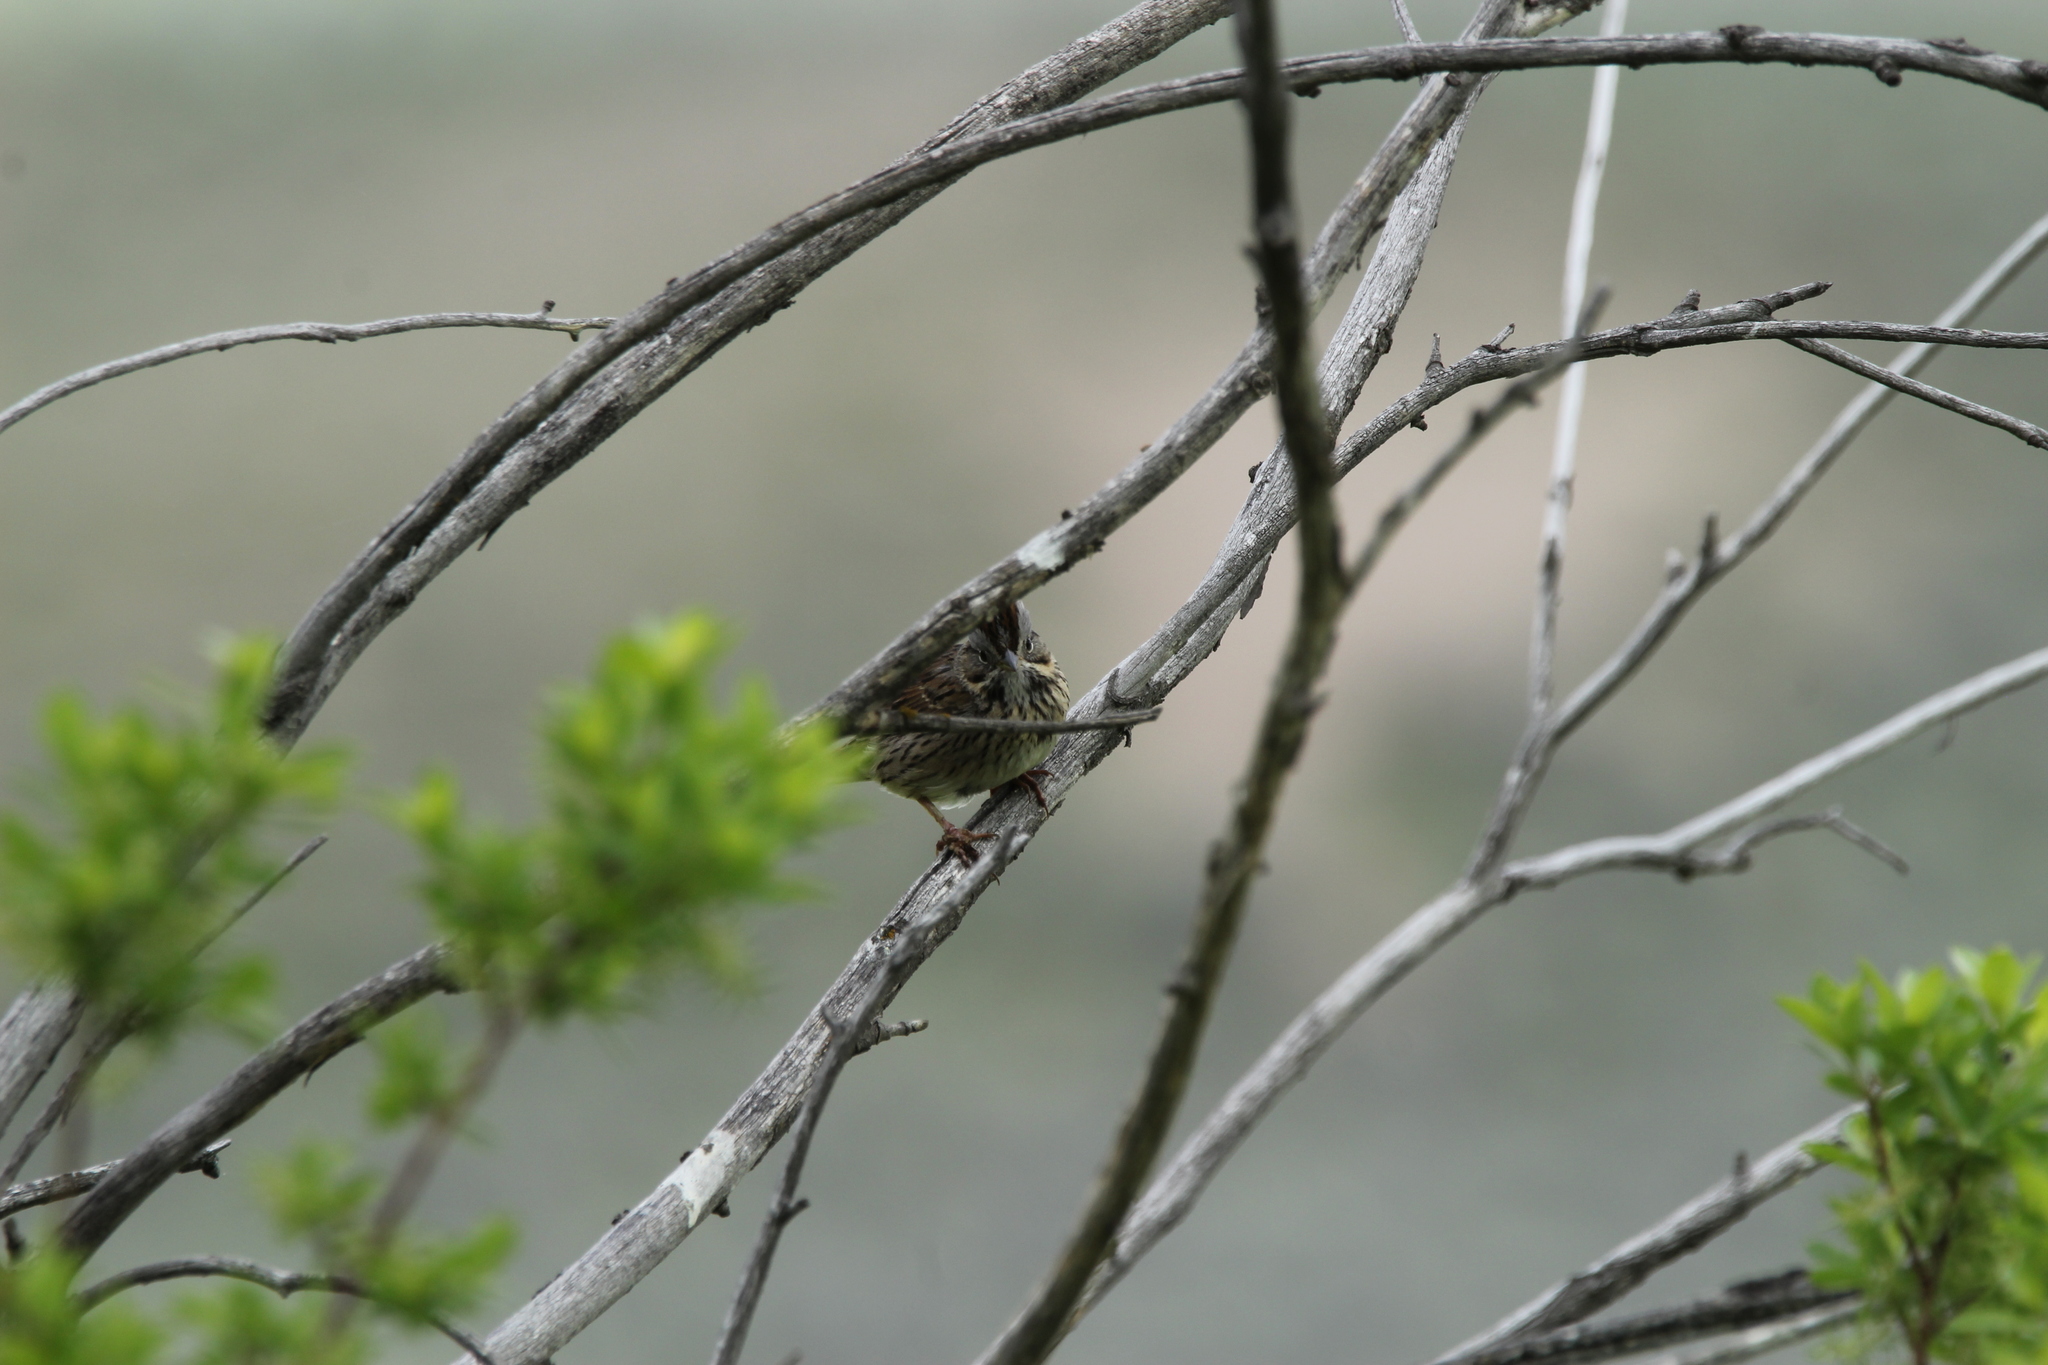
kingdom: Animalia
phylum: Chordata
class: Aves
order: Passeriformes
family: Passerellidae
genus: Melospiza
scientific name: Melospiza lincolnii
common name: Lincoln's sparrow
